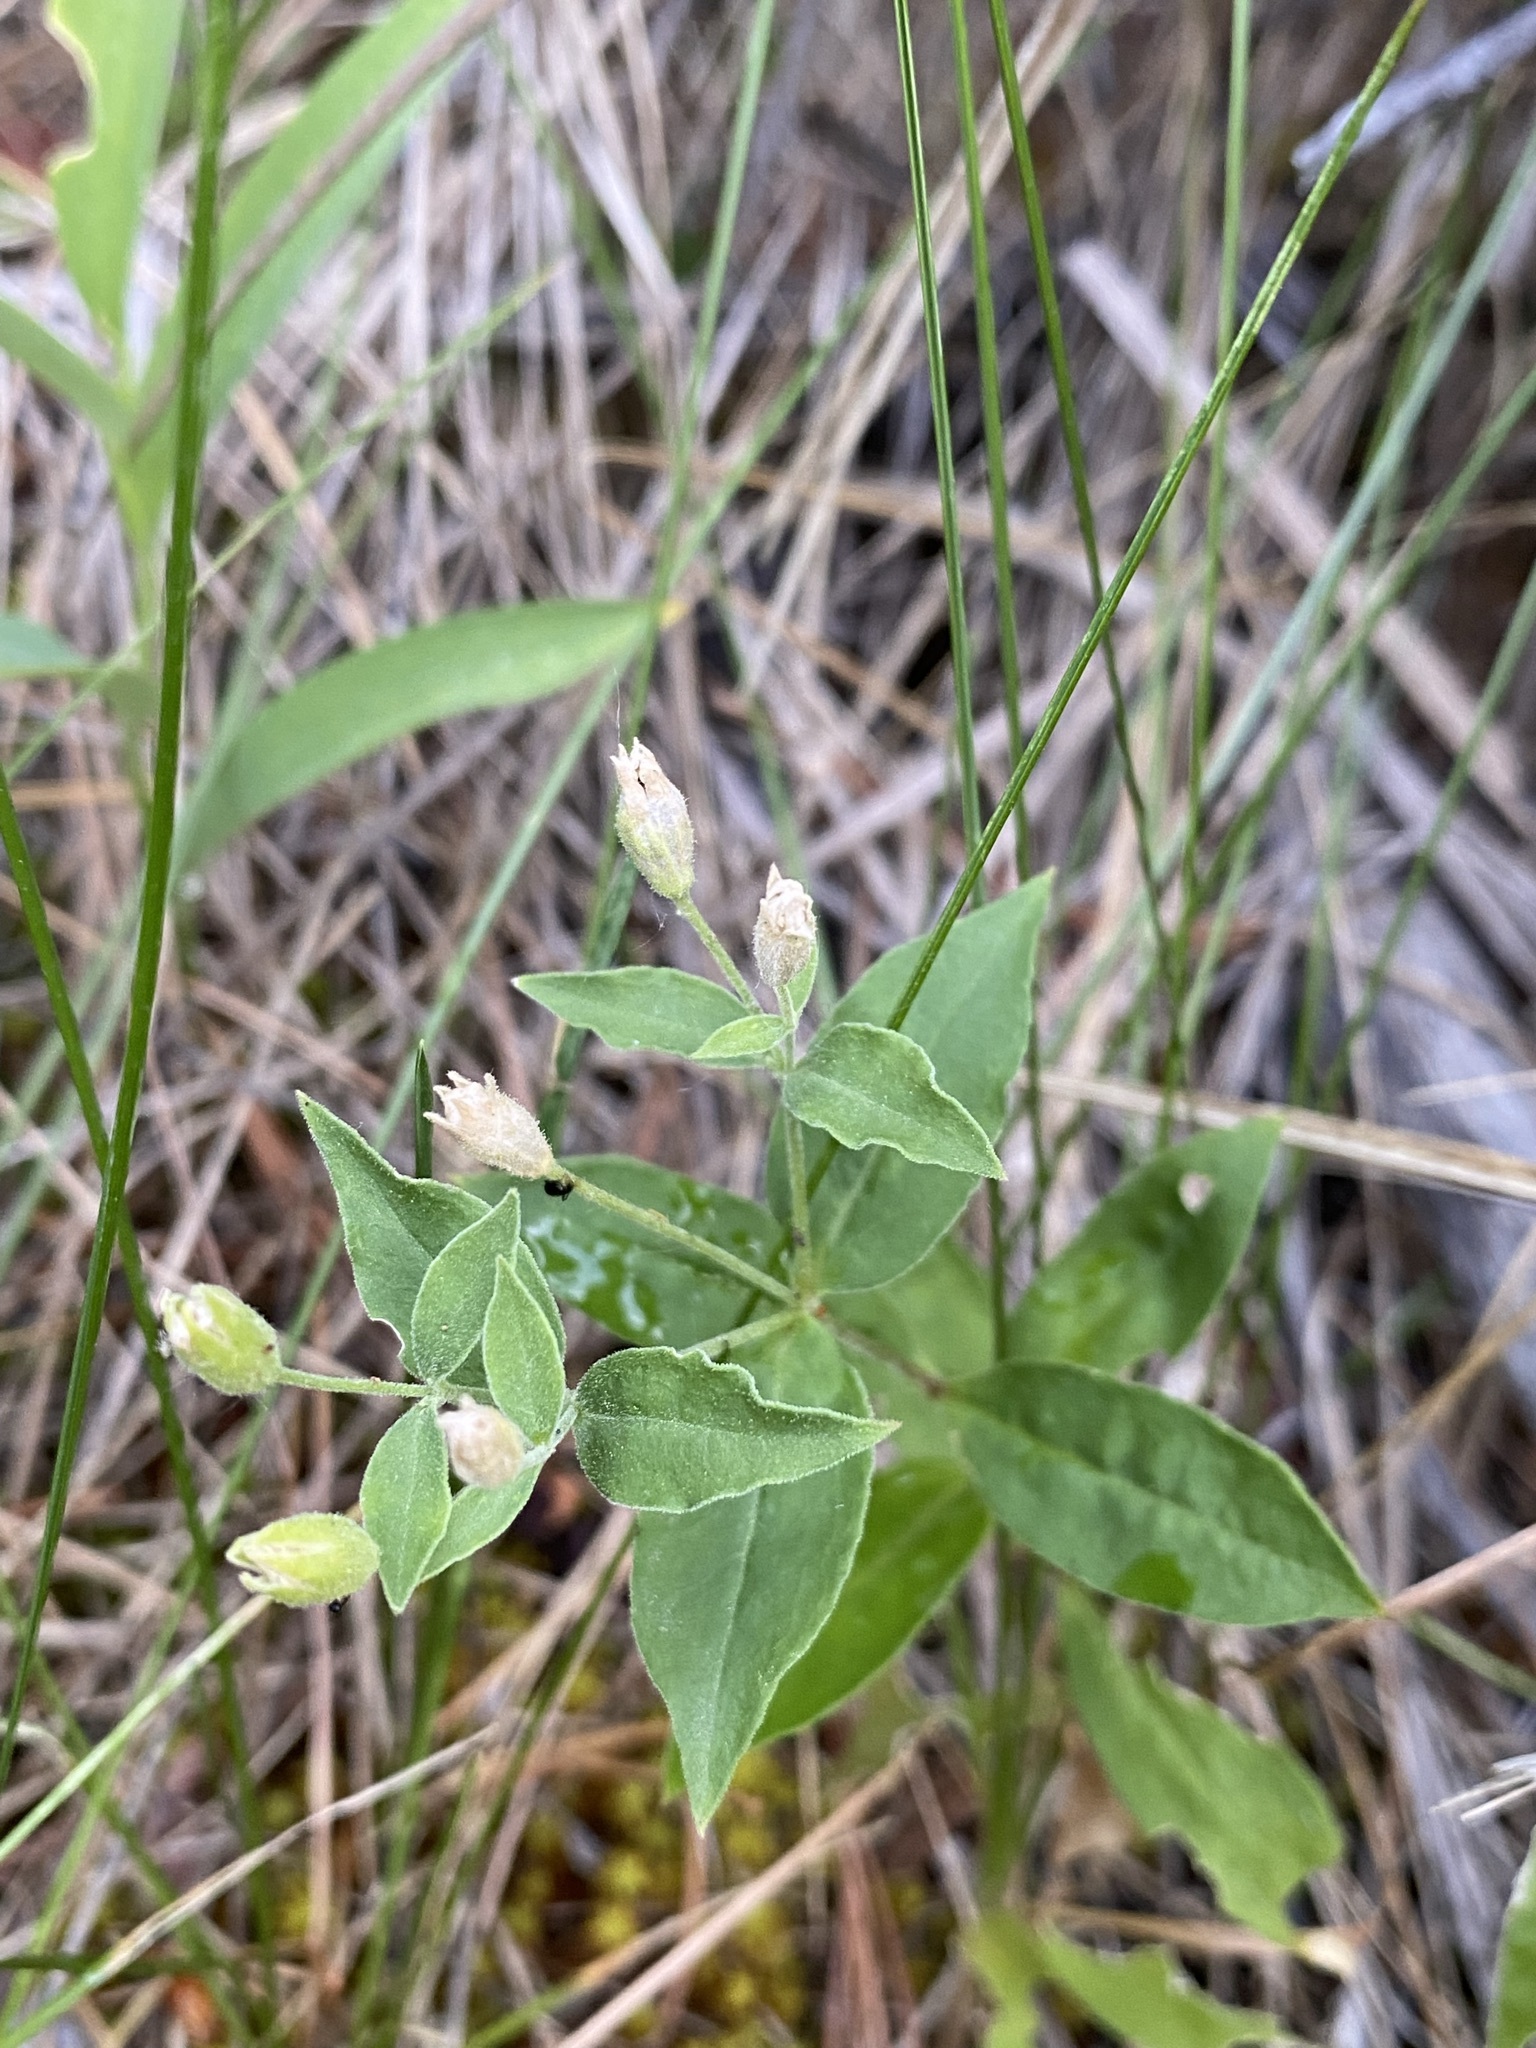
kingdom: Plantae
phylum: Tracheophyta
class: Magnoliopsida
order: Caryophyllales
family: Caryophyllaceae
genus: Silene
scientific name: Silene menziesii
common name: Menzies's catchfly
